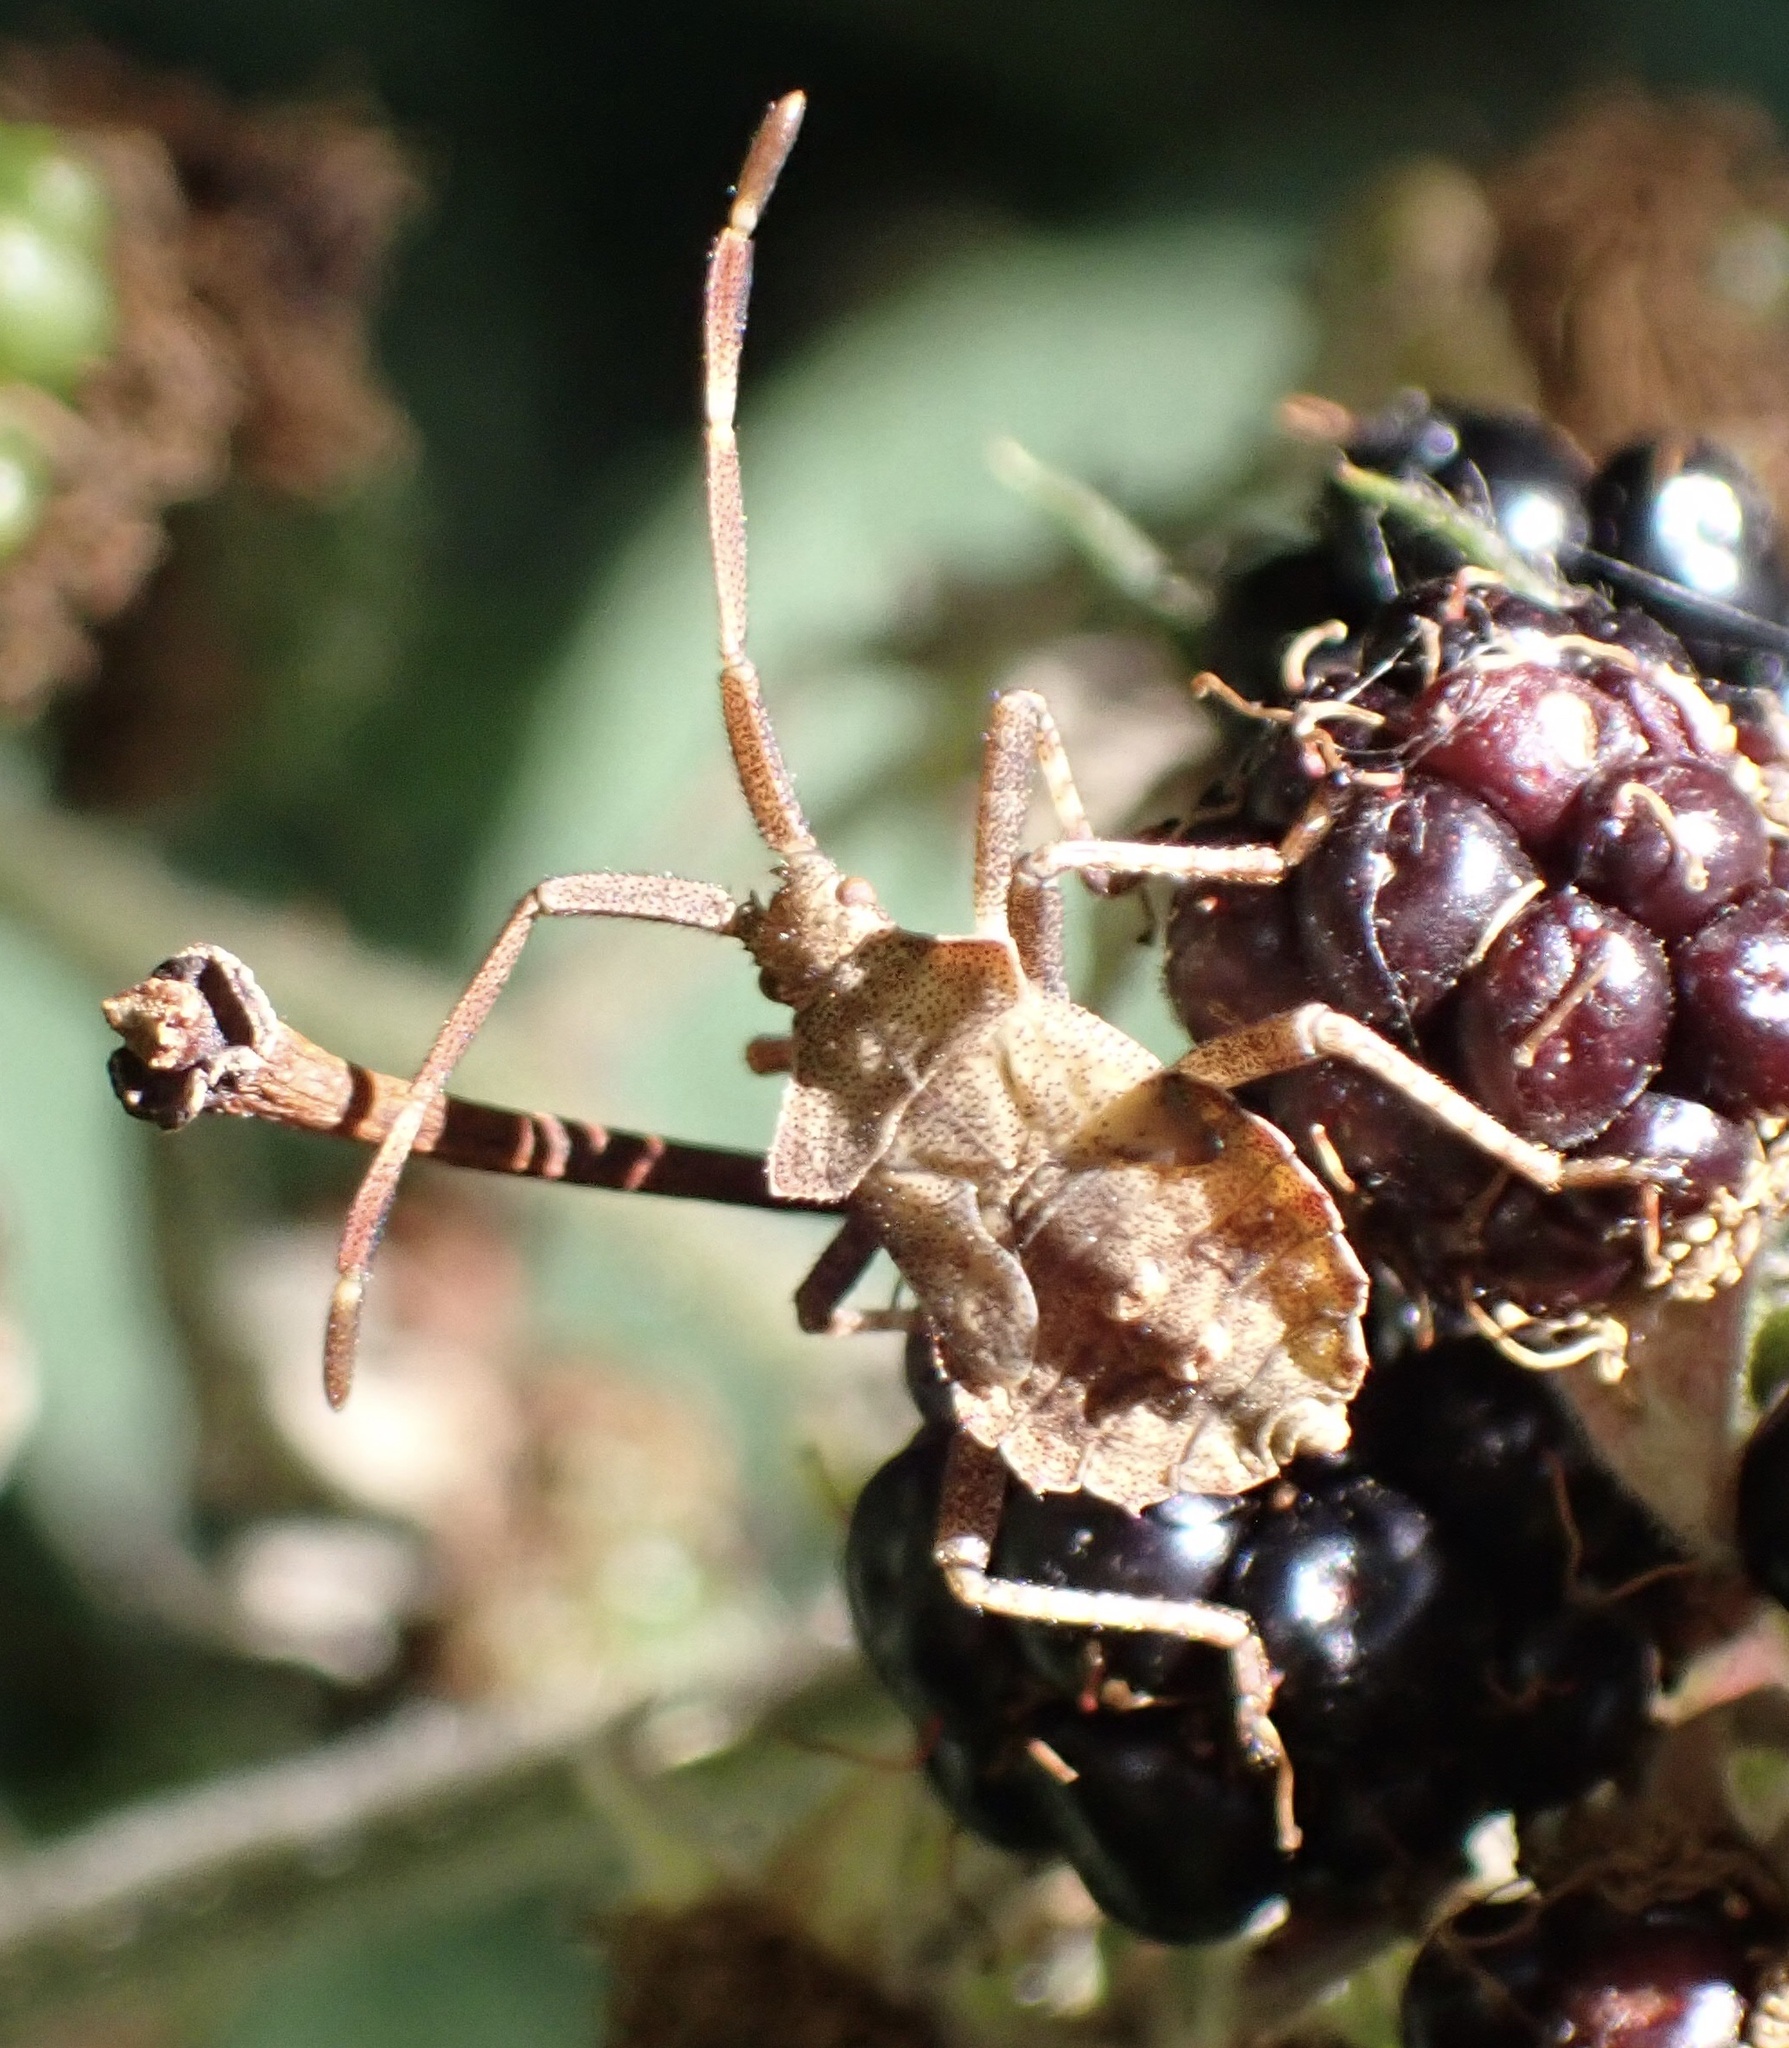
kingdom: Animalia
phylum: Arthropoda
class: Insecta
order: Hemiptera
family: Coreidae
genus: Coreus
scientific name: Coreus marginatus
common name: Dock bug
